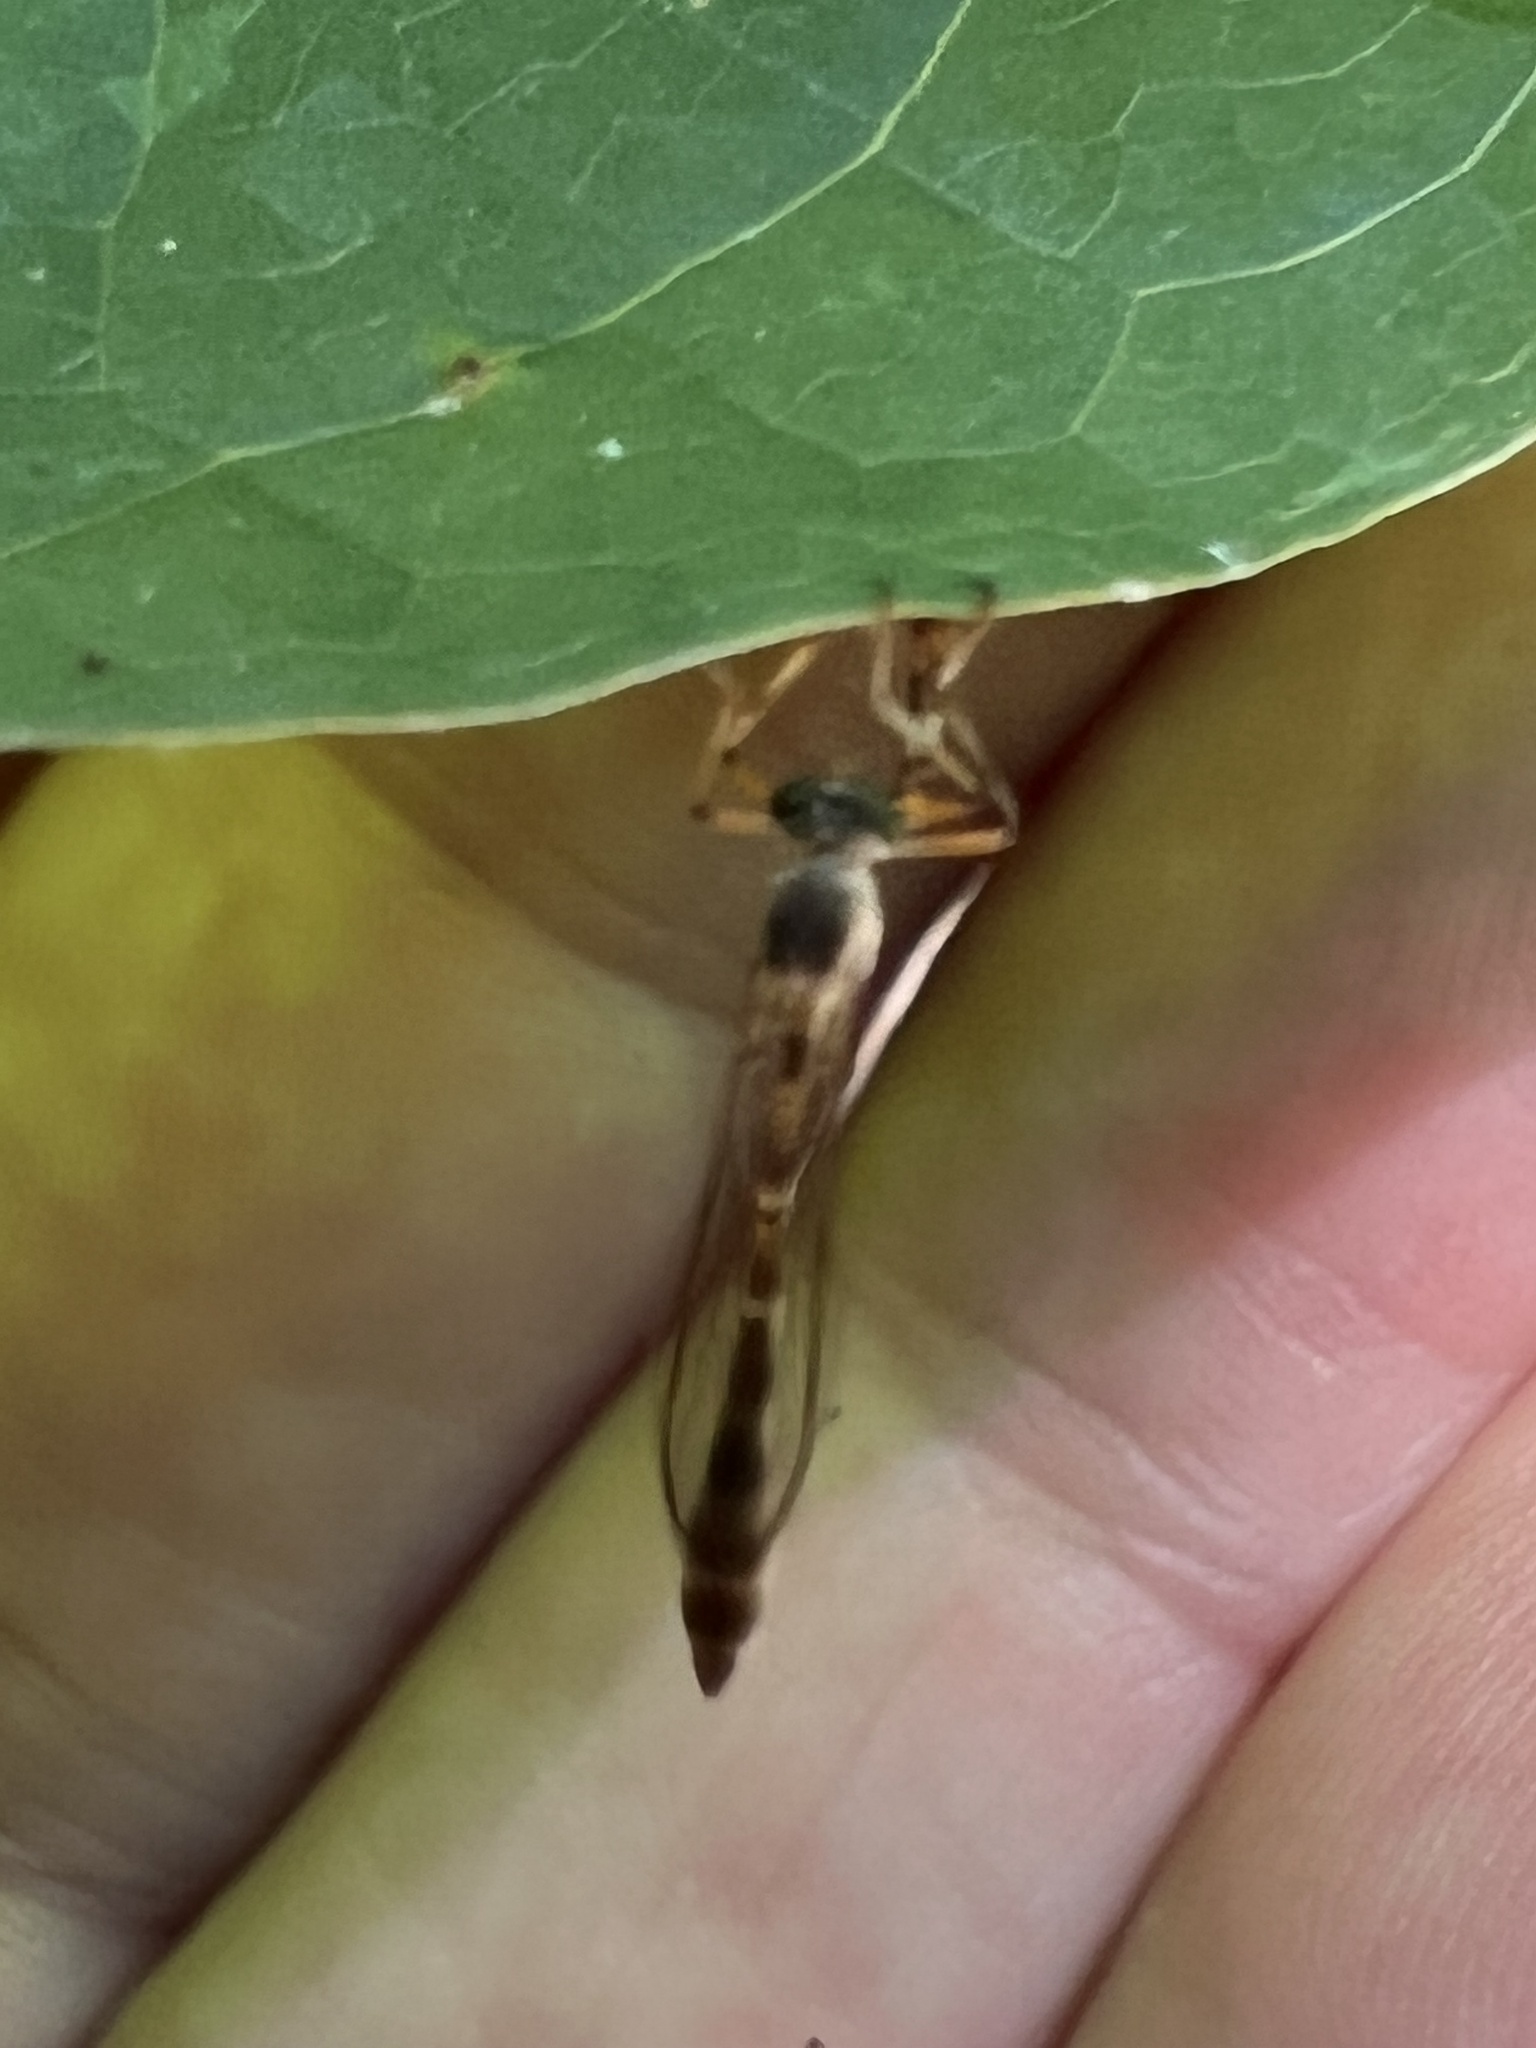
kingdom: Animalia
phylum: Arthropoda
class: Insecta
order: Diptera
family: Asilidae
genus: Psilonyx
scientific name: Psilonyx annulatus
